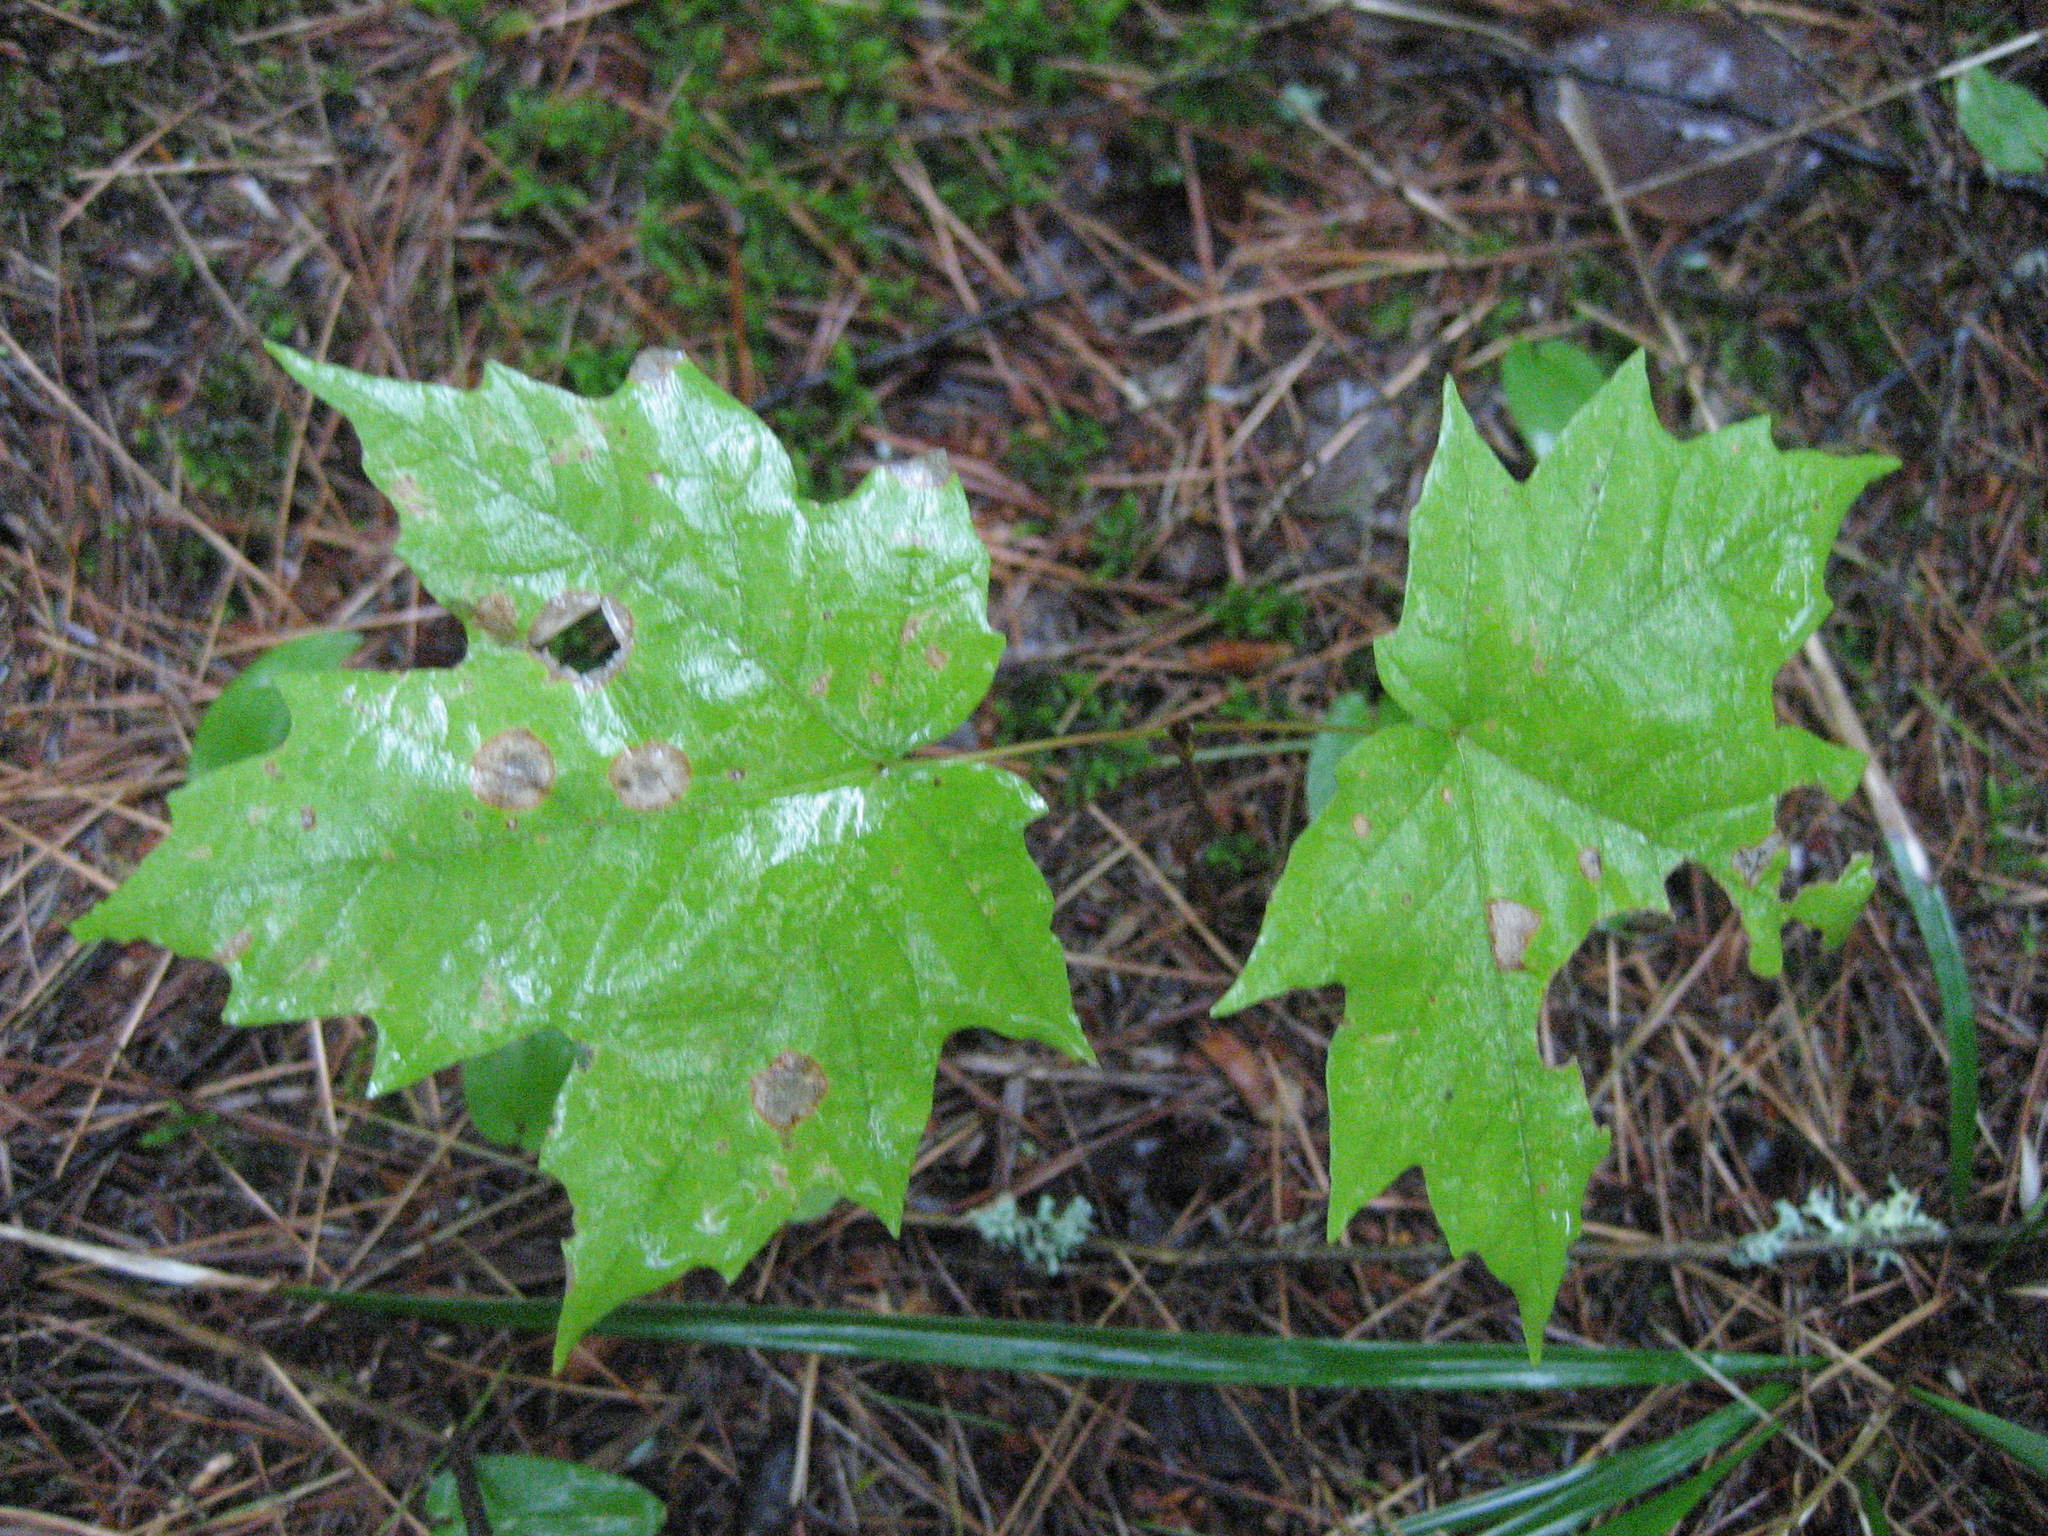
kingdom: Plantae
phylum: Tracheophyta
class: Magnoliopsida
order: Sapindales
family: Sapindaceae
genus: Acer
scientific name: Acer saccharum
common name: Sugar maple
